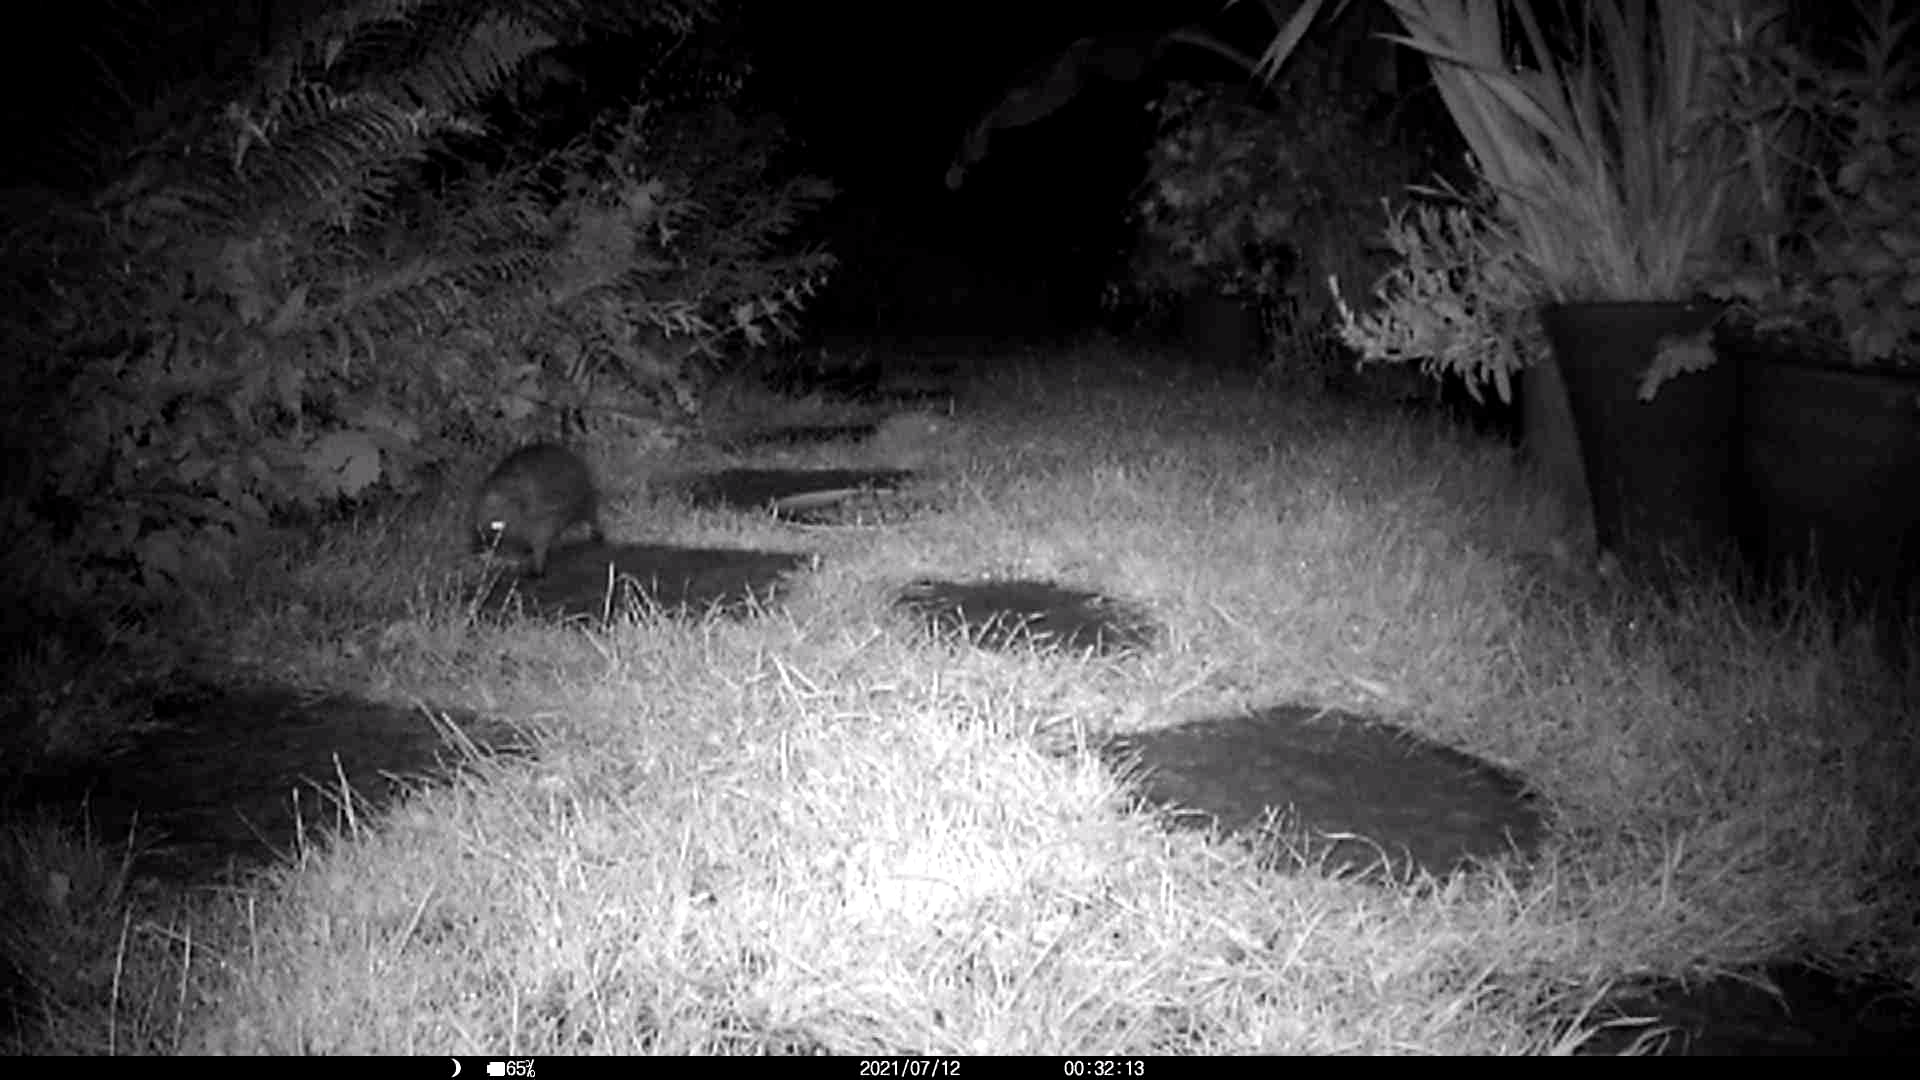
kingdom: Animalia
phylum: Chordata
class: Mammalia
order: Erinaceomorpha
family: Erinaceidae
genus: Erinaceus
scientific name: Erinaceus europaeus
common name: West european hedgehog
